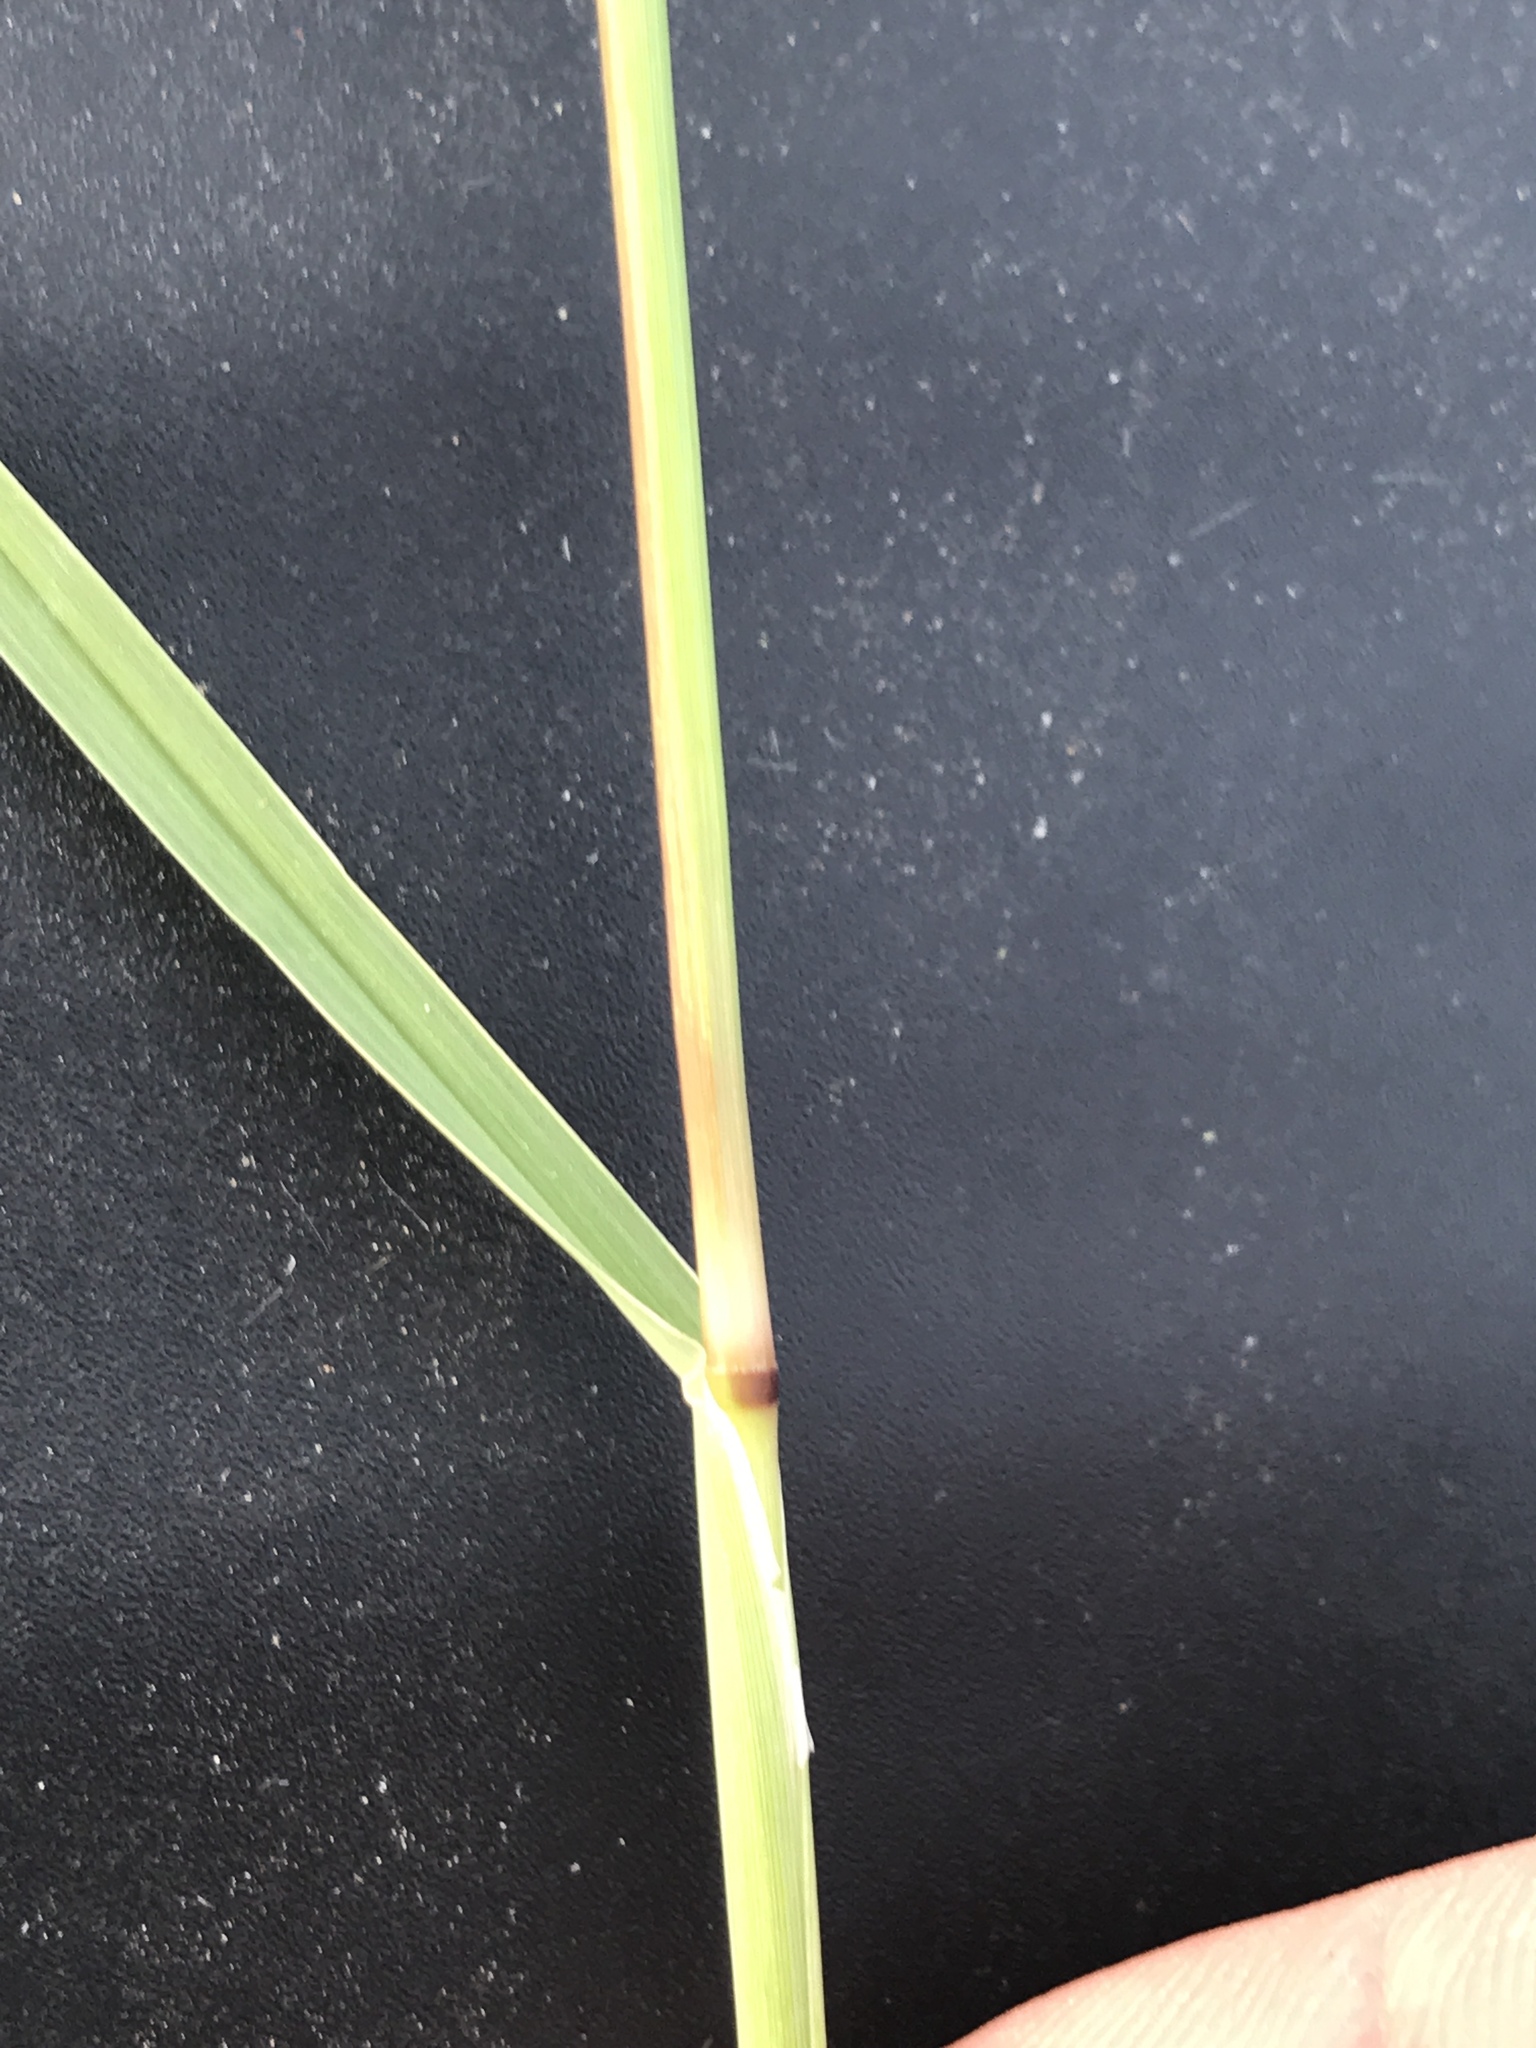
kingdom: Plantae
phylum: Tracheophyta
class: Liliopsida
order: Poales
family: Poaceae
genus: Chloris
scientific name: Chloris verticillata
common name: Tumble windmill grass
